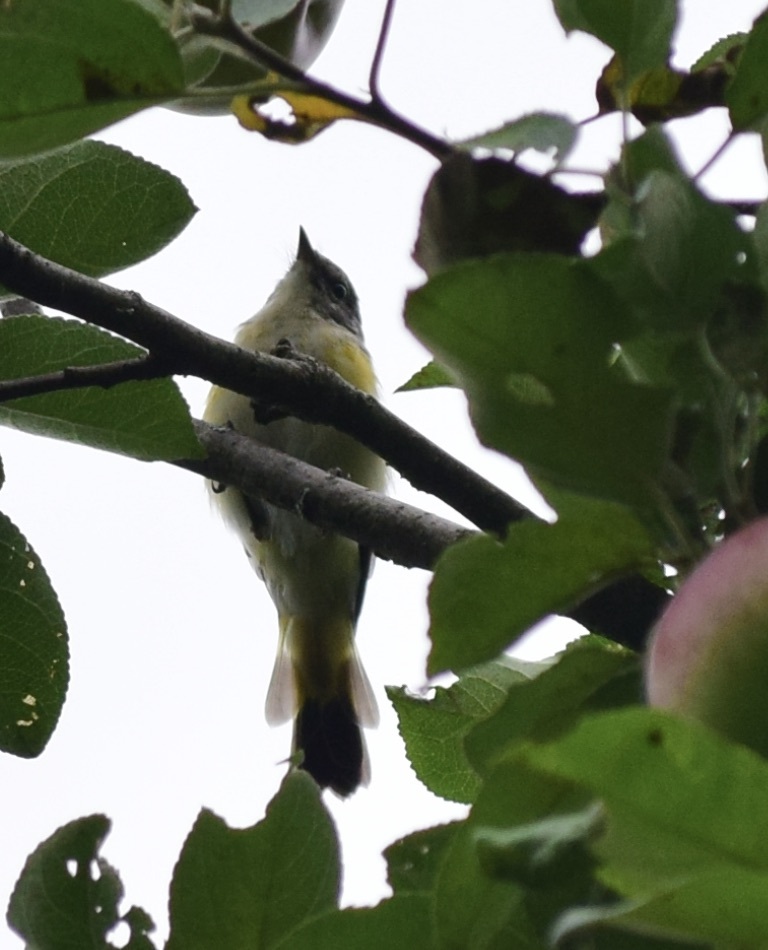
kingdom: Animalia
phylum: Chordata
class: Aves
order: Passeriformes
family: Parulidae
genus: Setophaga
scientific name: Setophaga ruticilla
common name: American redstart
